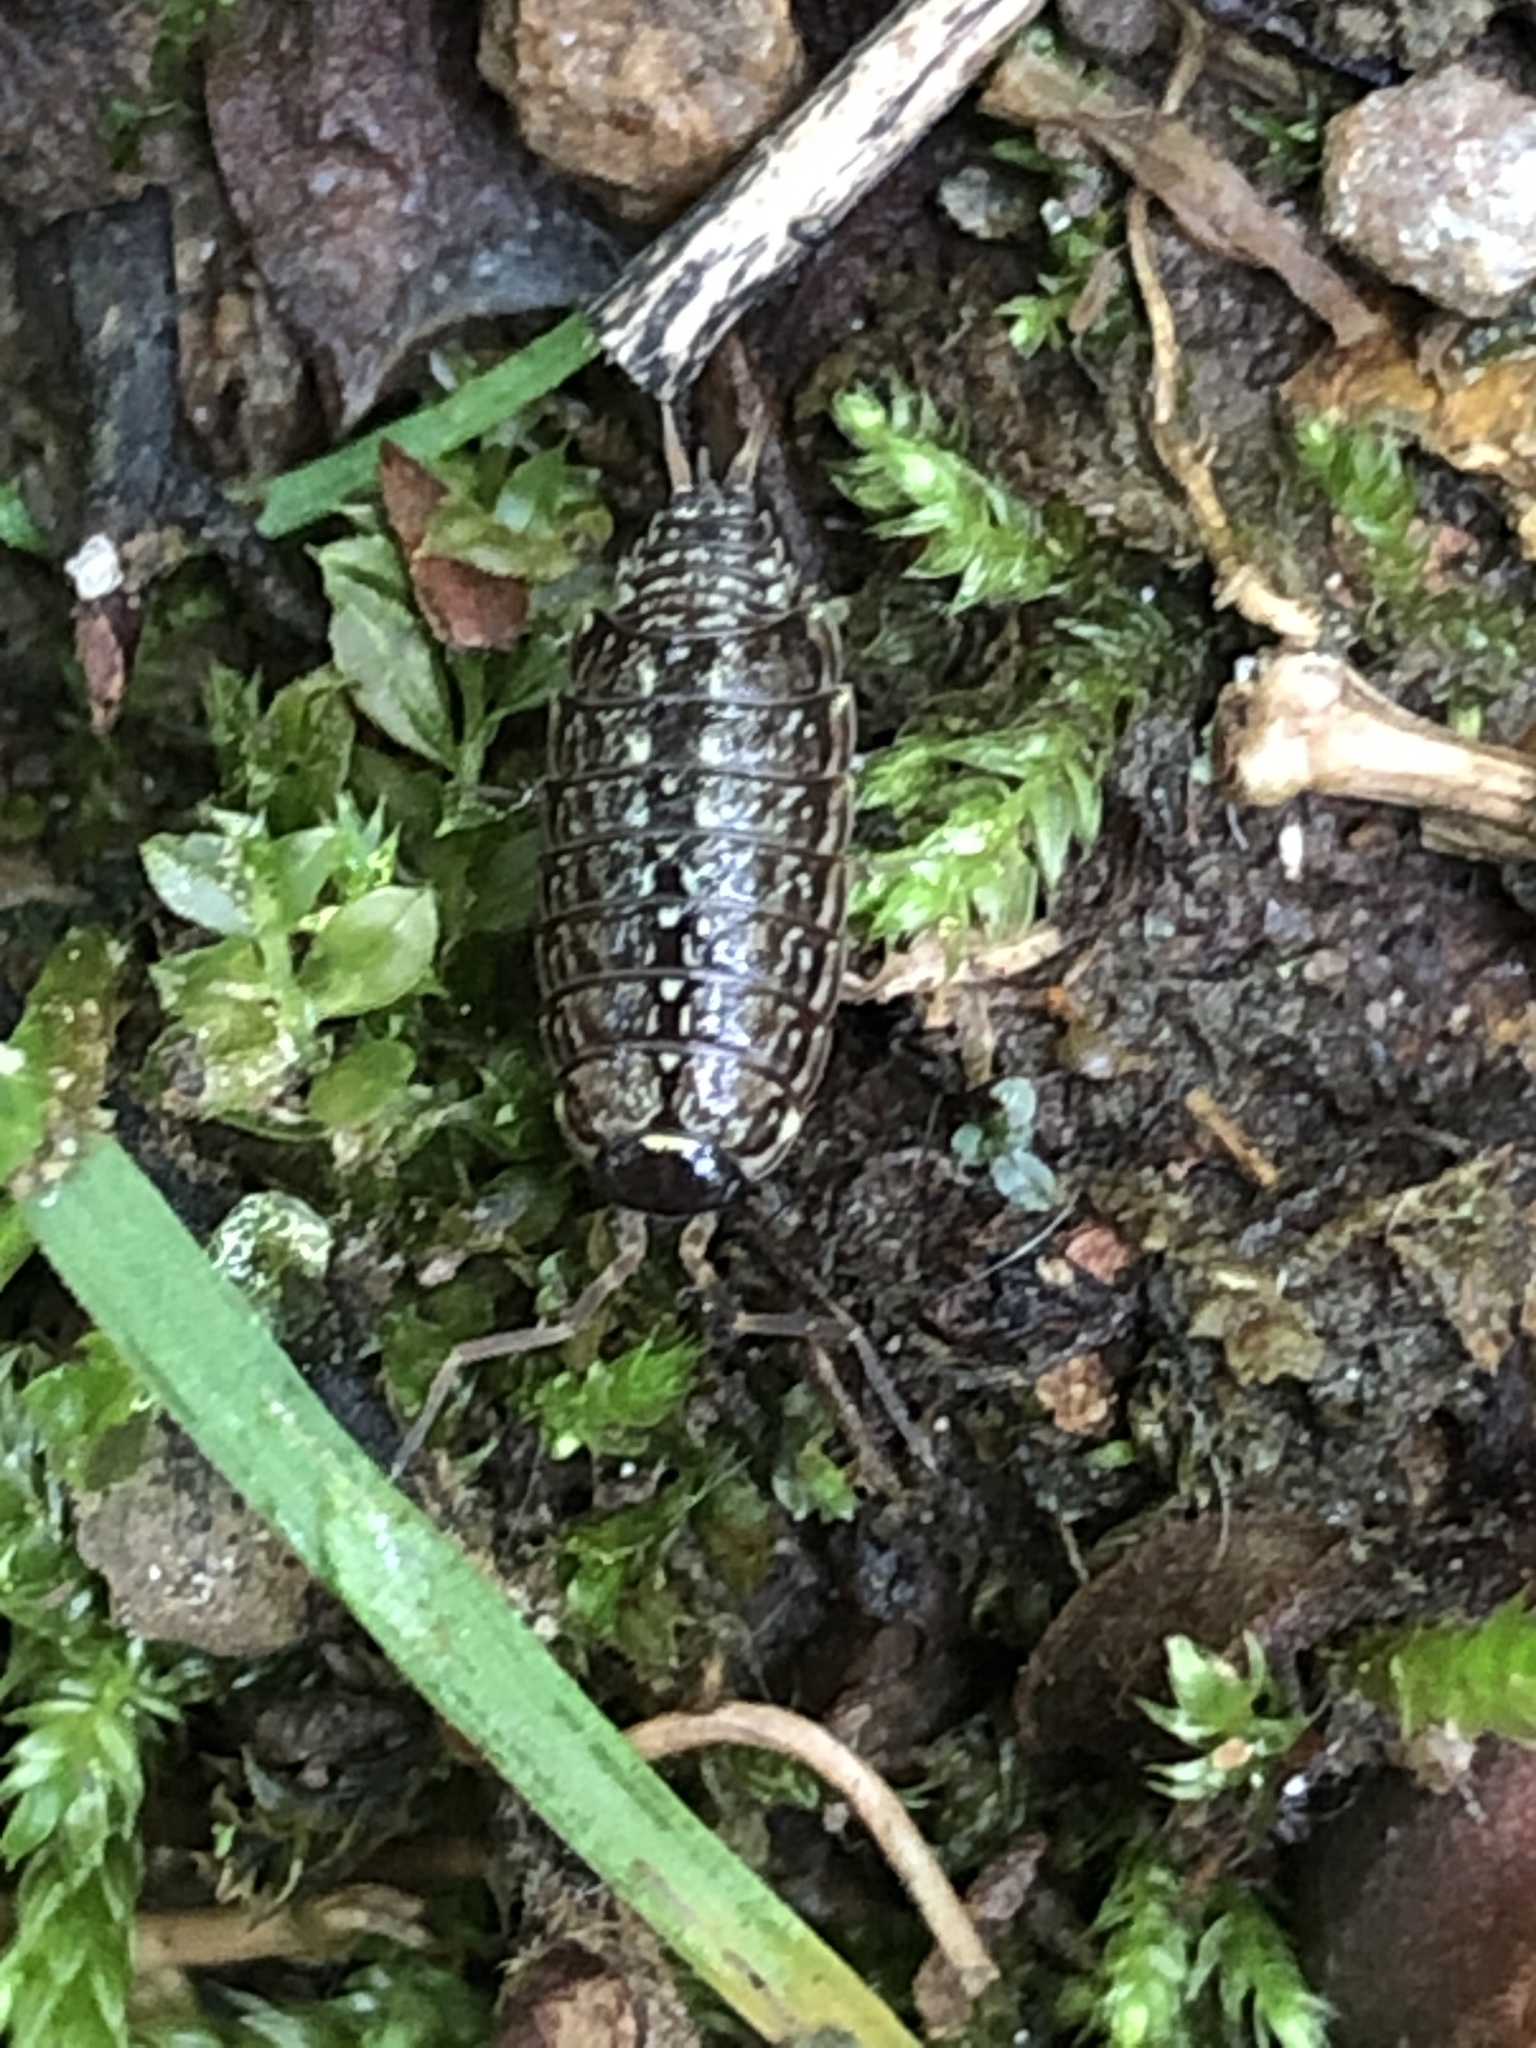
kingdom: Animalia
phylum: Arthropoda
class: Malacostraca
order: Isopoda
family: Philosciidae
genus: Philoscia
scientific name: Philoscia muscorum
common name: Common striped woodlouse
